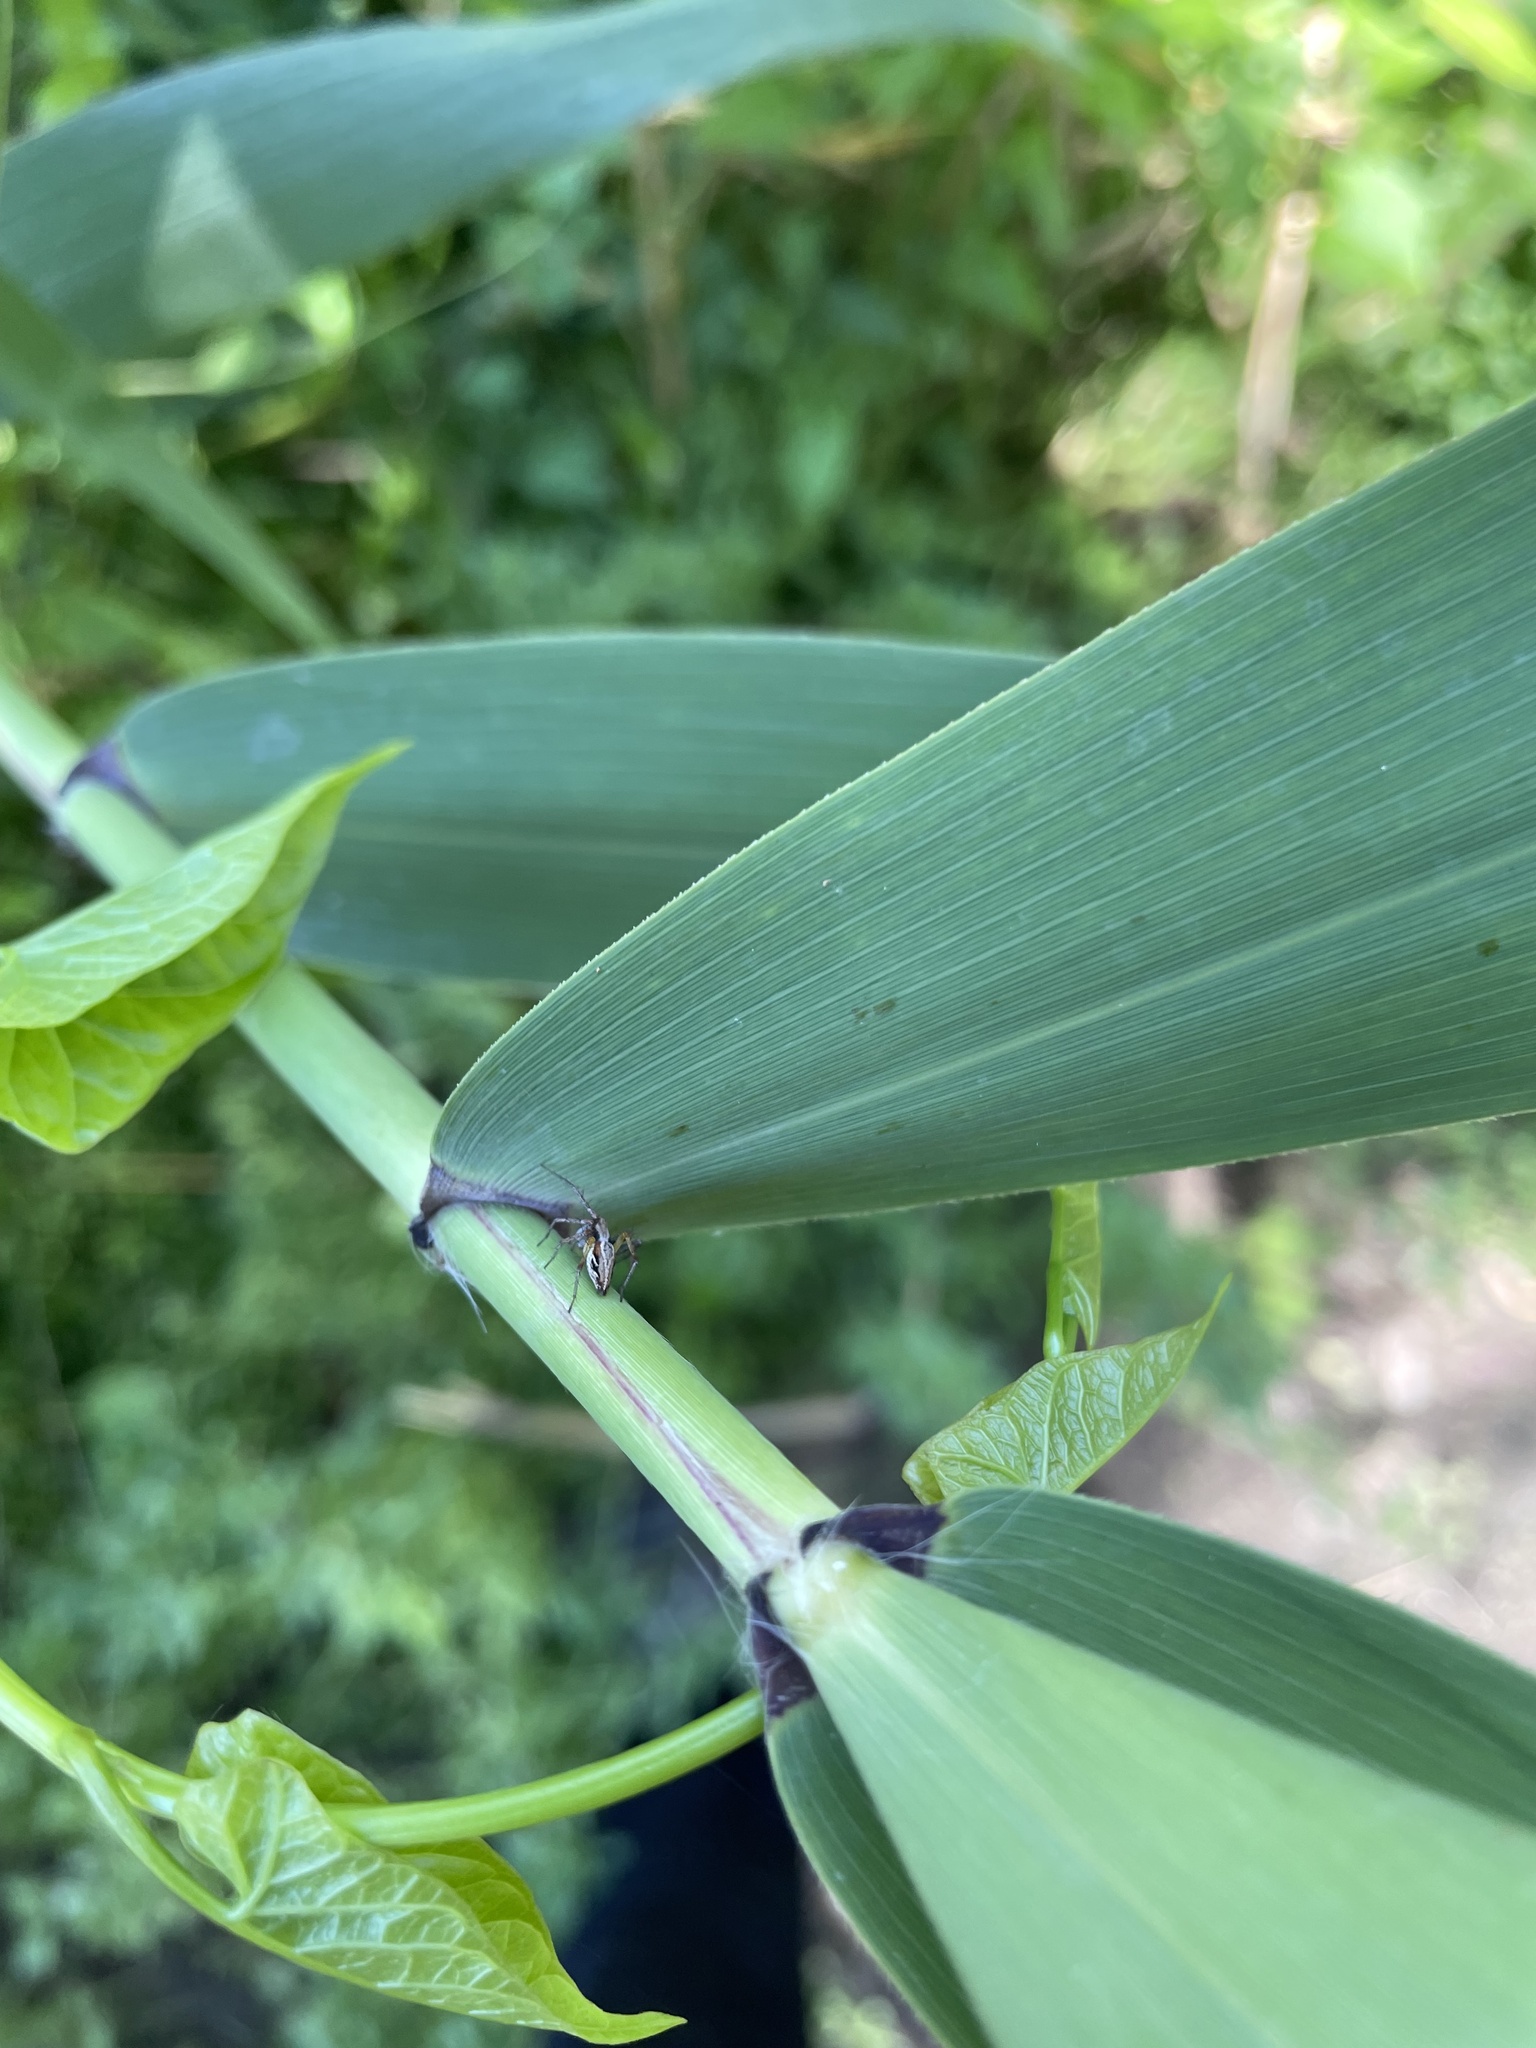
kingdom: Plantae
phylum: Tracheophyta
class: Liliopsida
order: Poales
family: Poaceae
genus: Phragmites
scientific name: Phragmites australis
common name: Common reed
